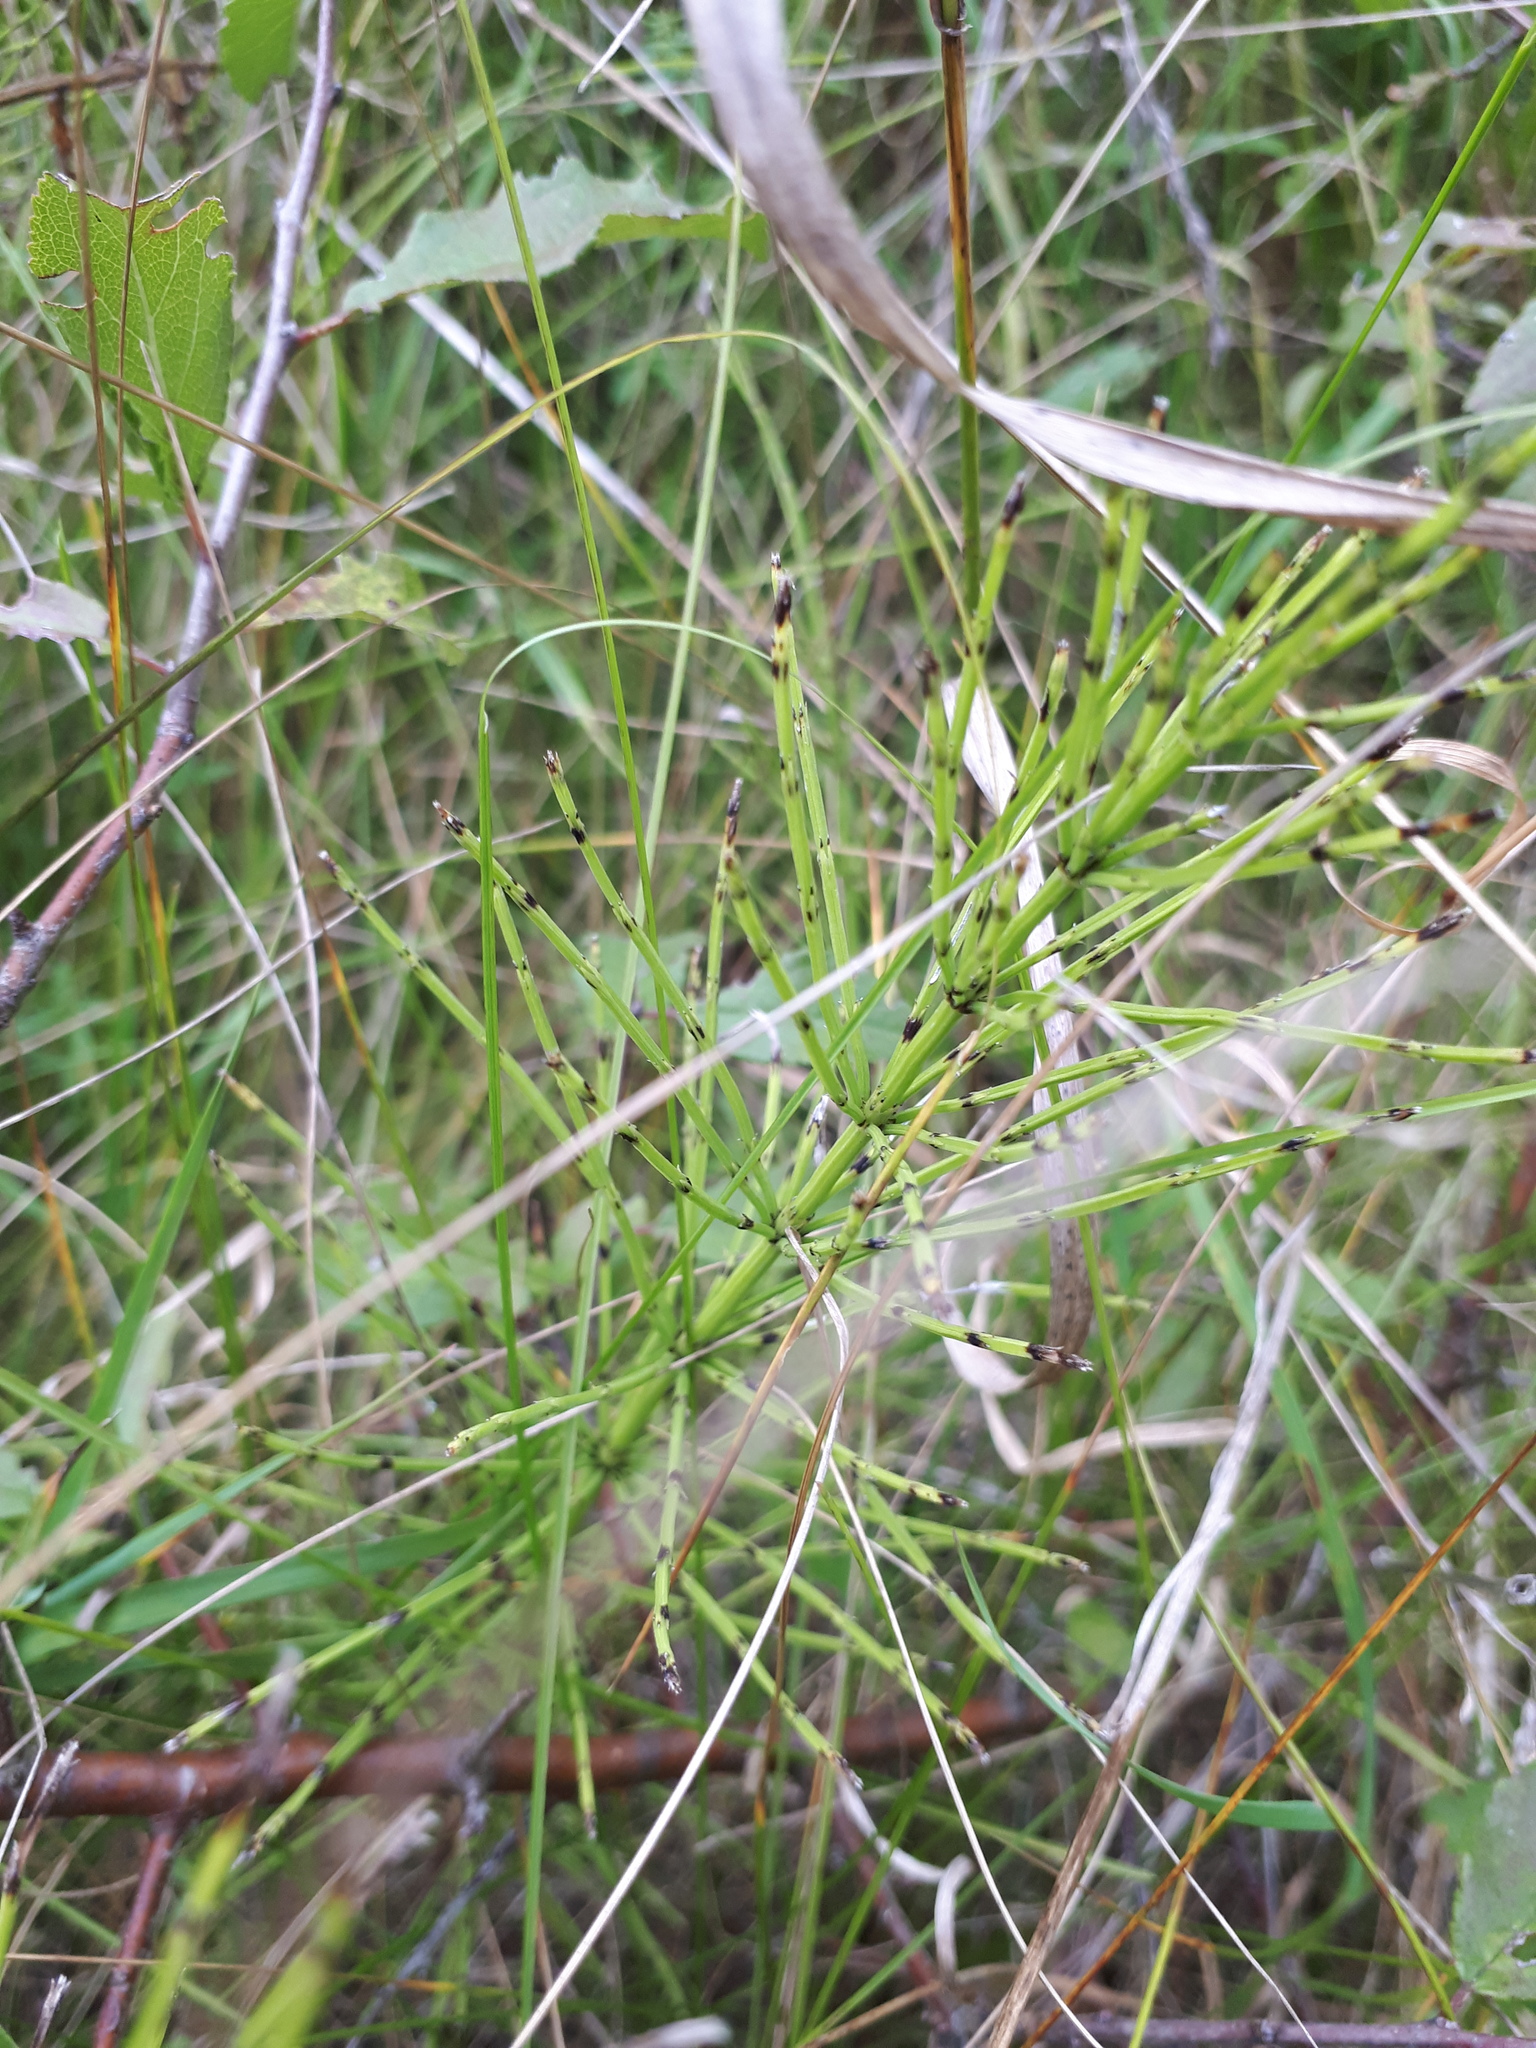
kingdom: Plantae
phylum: Tracheophyta
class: Polypodiopsida
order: Equisetales
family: Equisetaceae
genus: Equisetum
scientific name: Equisetum arvense
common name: Field horsetail
